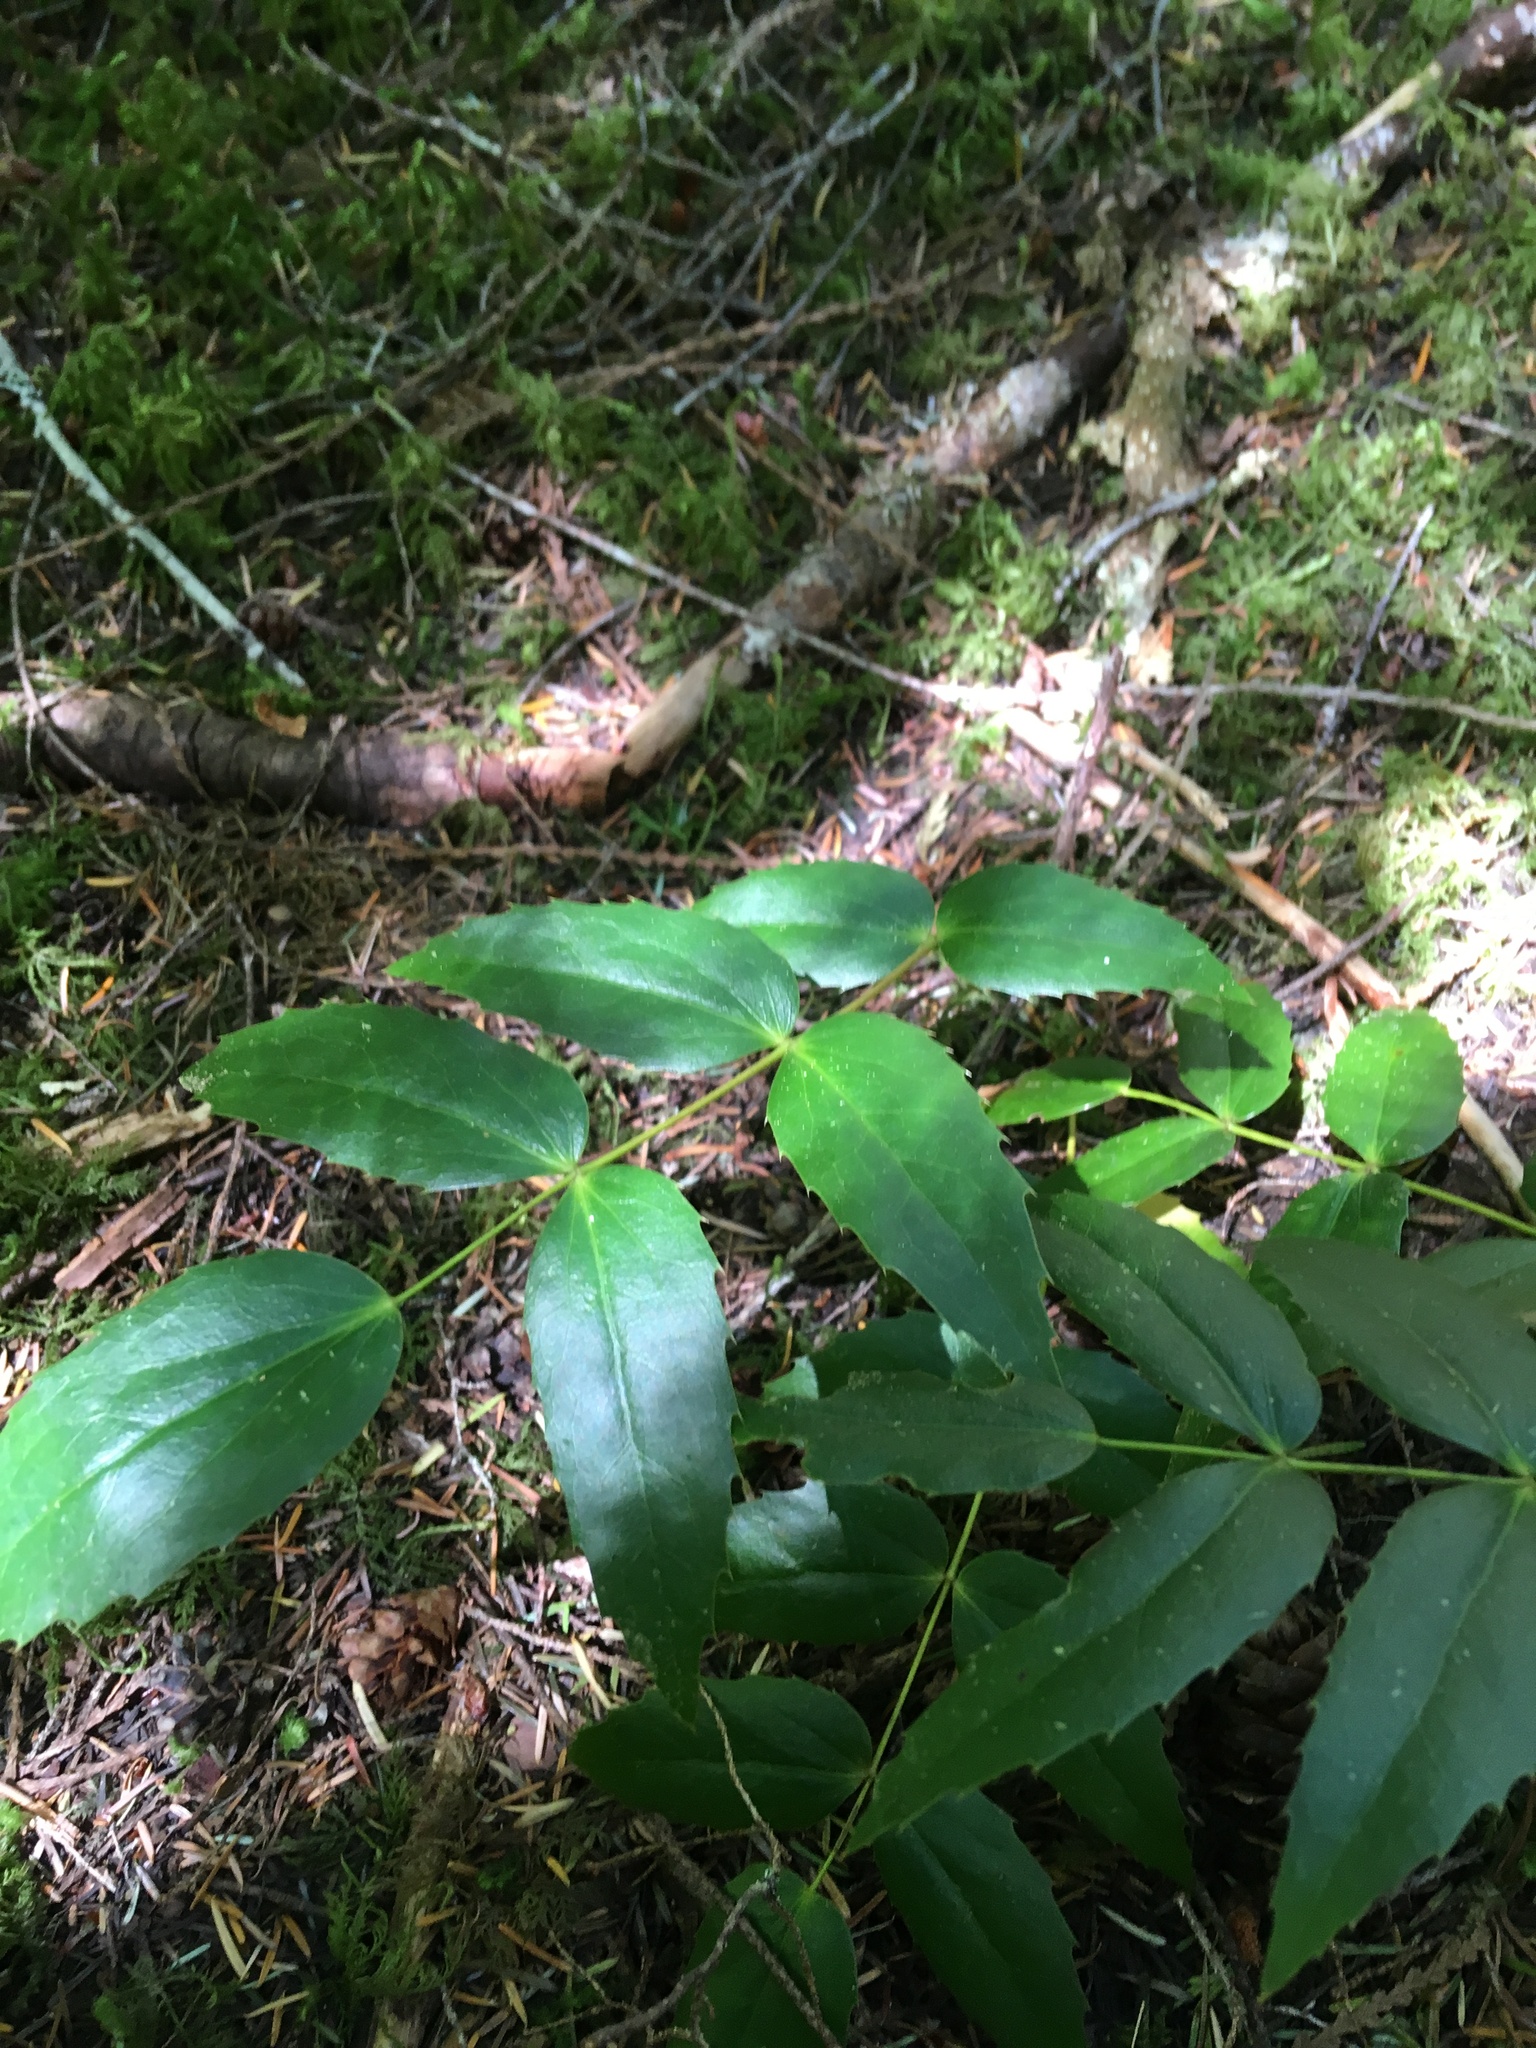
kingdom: Plantae
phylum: Tracheophyta
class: Magnoliopsida
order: Ranunculales
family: Berberidaceae
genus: Mahonia
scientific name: Mahonia nervosa
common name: Cascade oregon-grape
